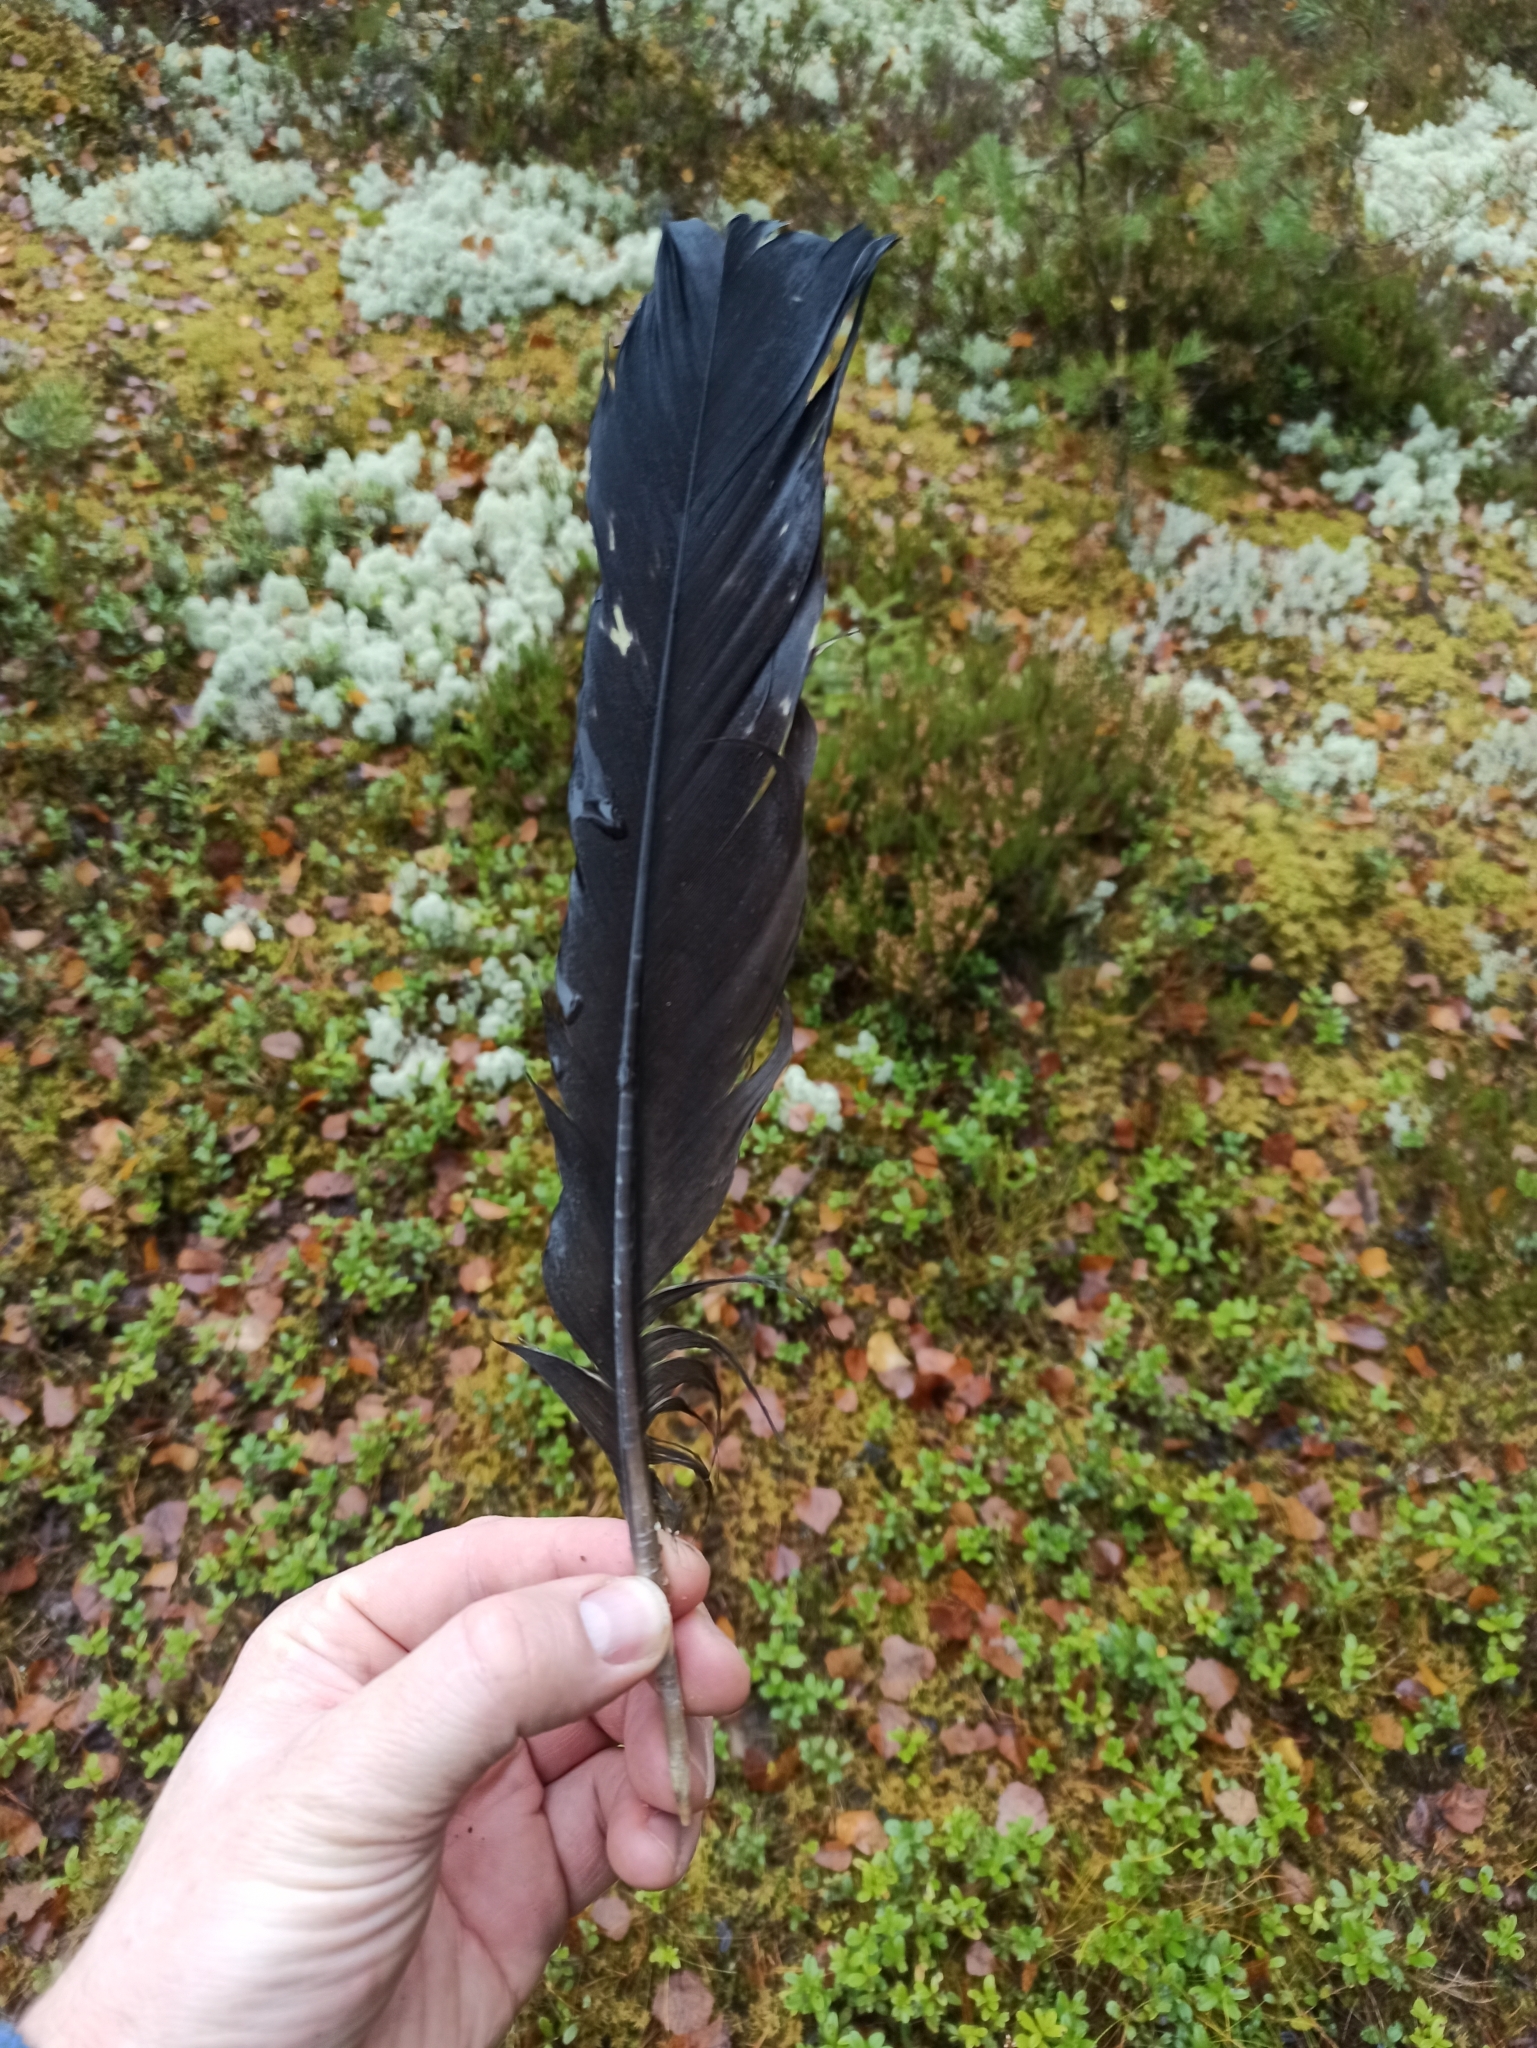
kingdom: Animalia
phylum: Chordata
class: Aves
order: Galliformes
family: Phasianidae
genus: Tetrao
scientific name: Tetrao urogallus
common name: Western capercaillie
